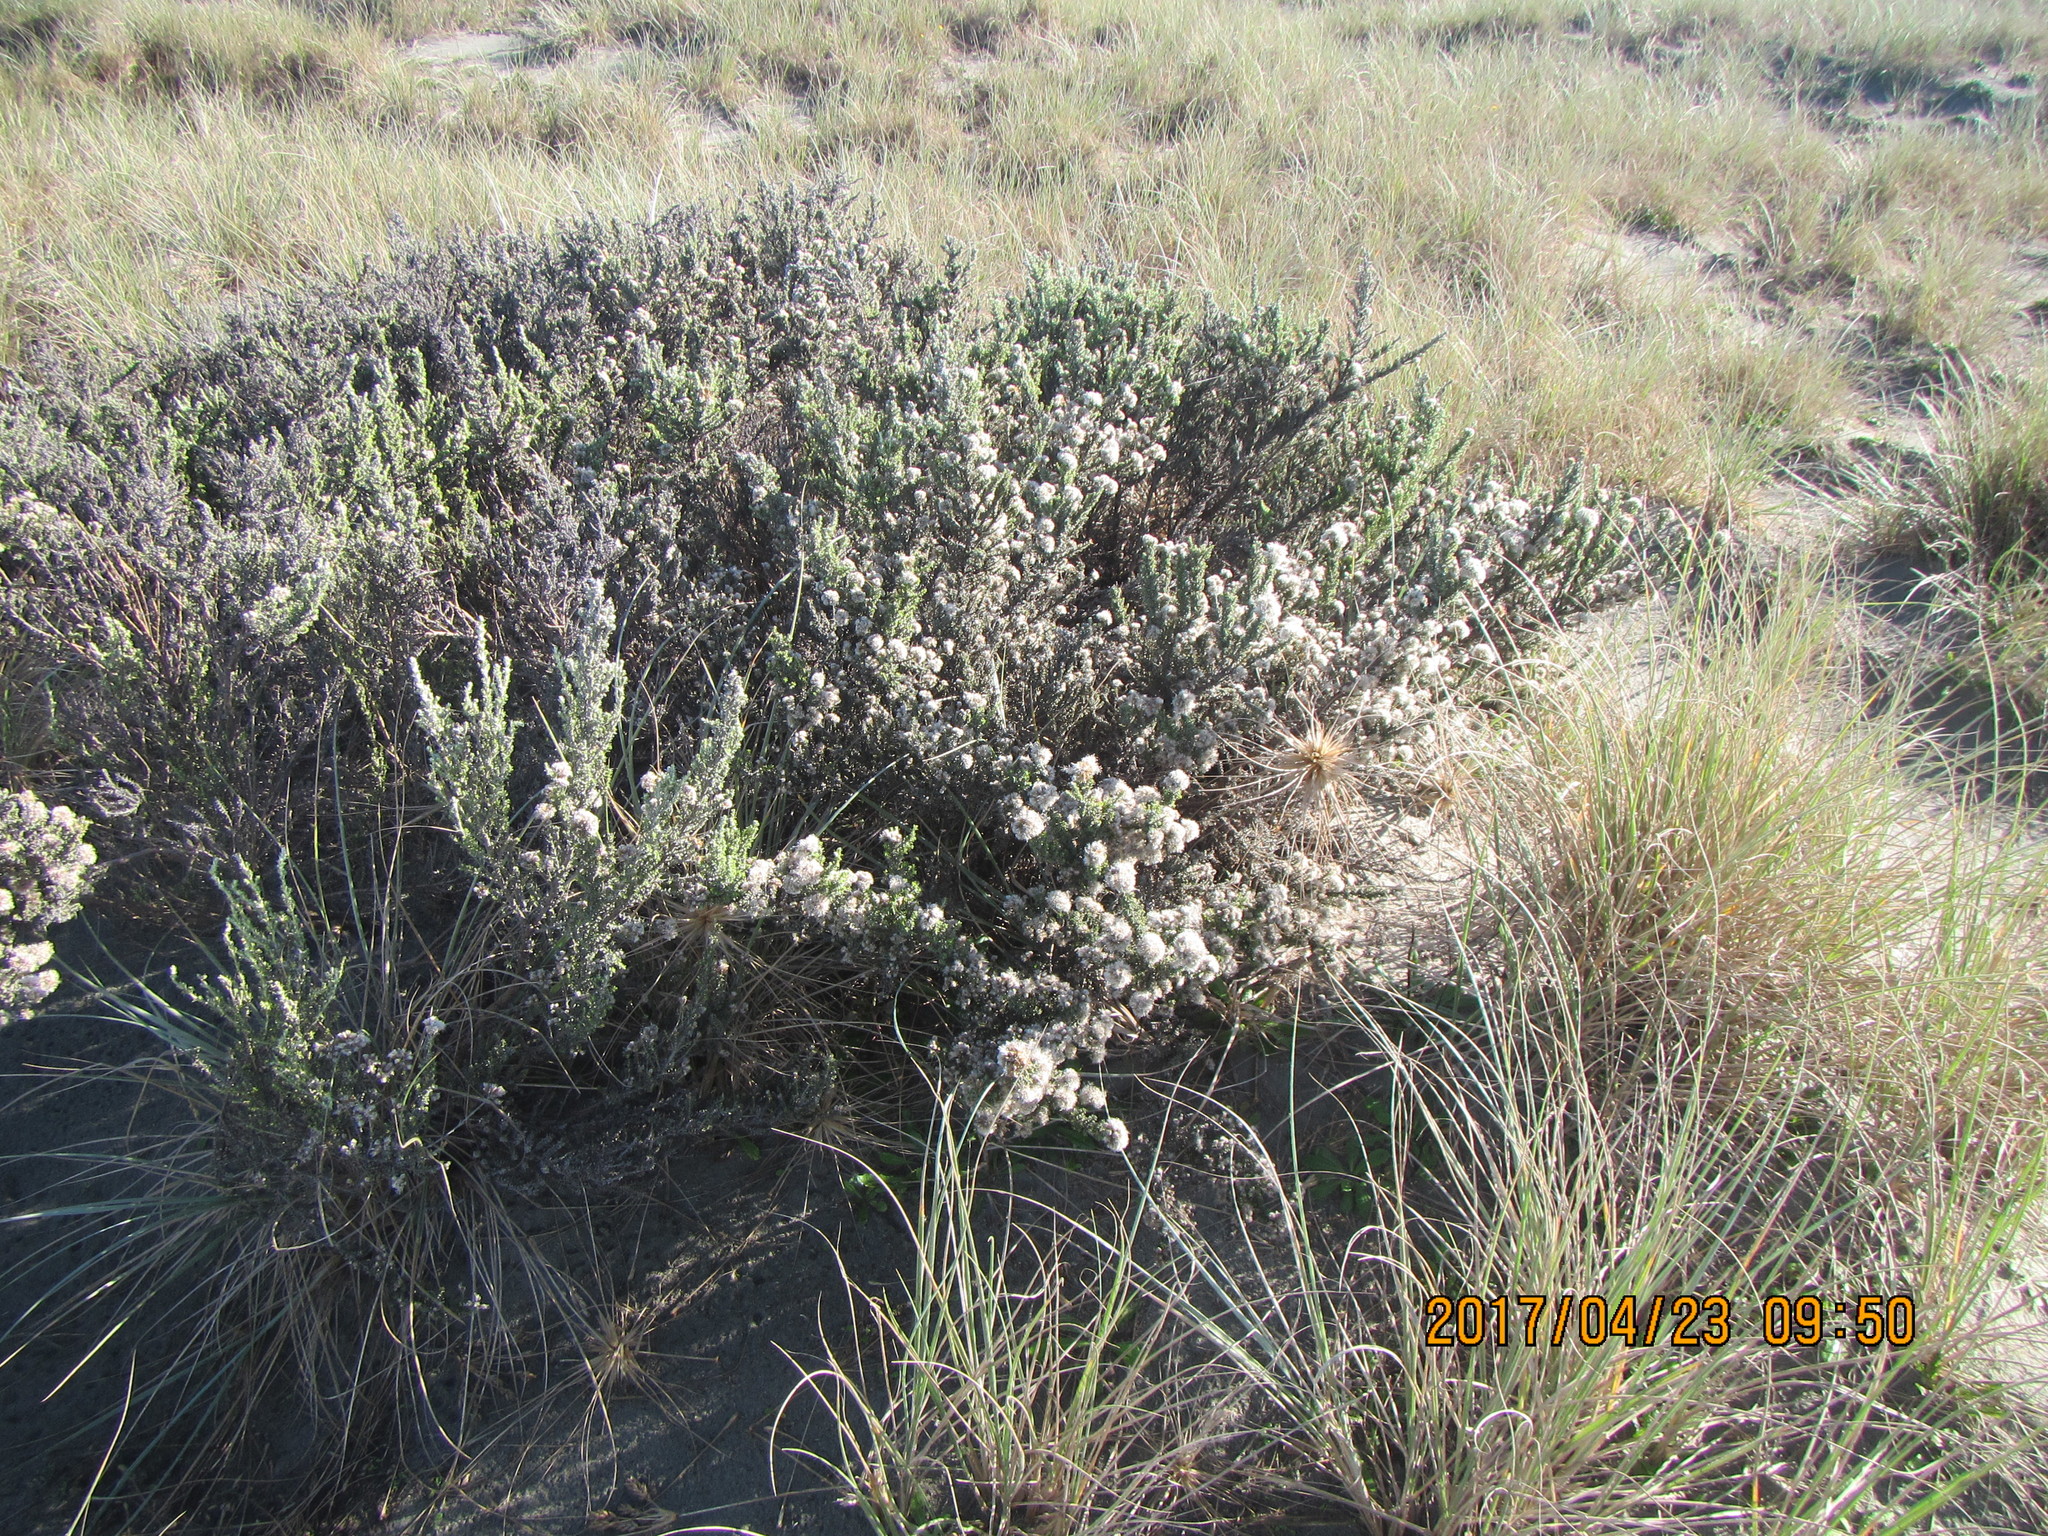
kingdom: Plantae
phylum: Tracheophyta
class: Magnoliopsida
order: Asterales
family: Asteraceae
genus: Ozothamnus
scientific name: Ozothamnus leptophyllus
